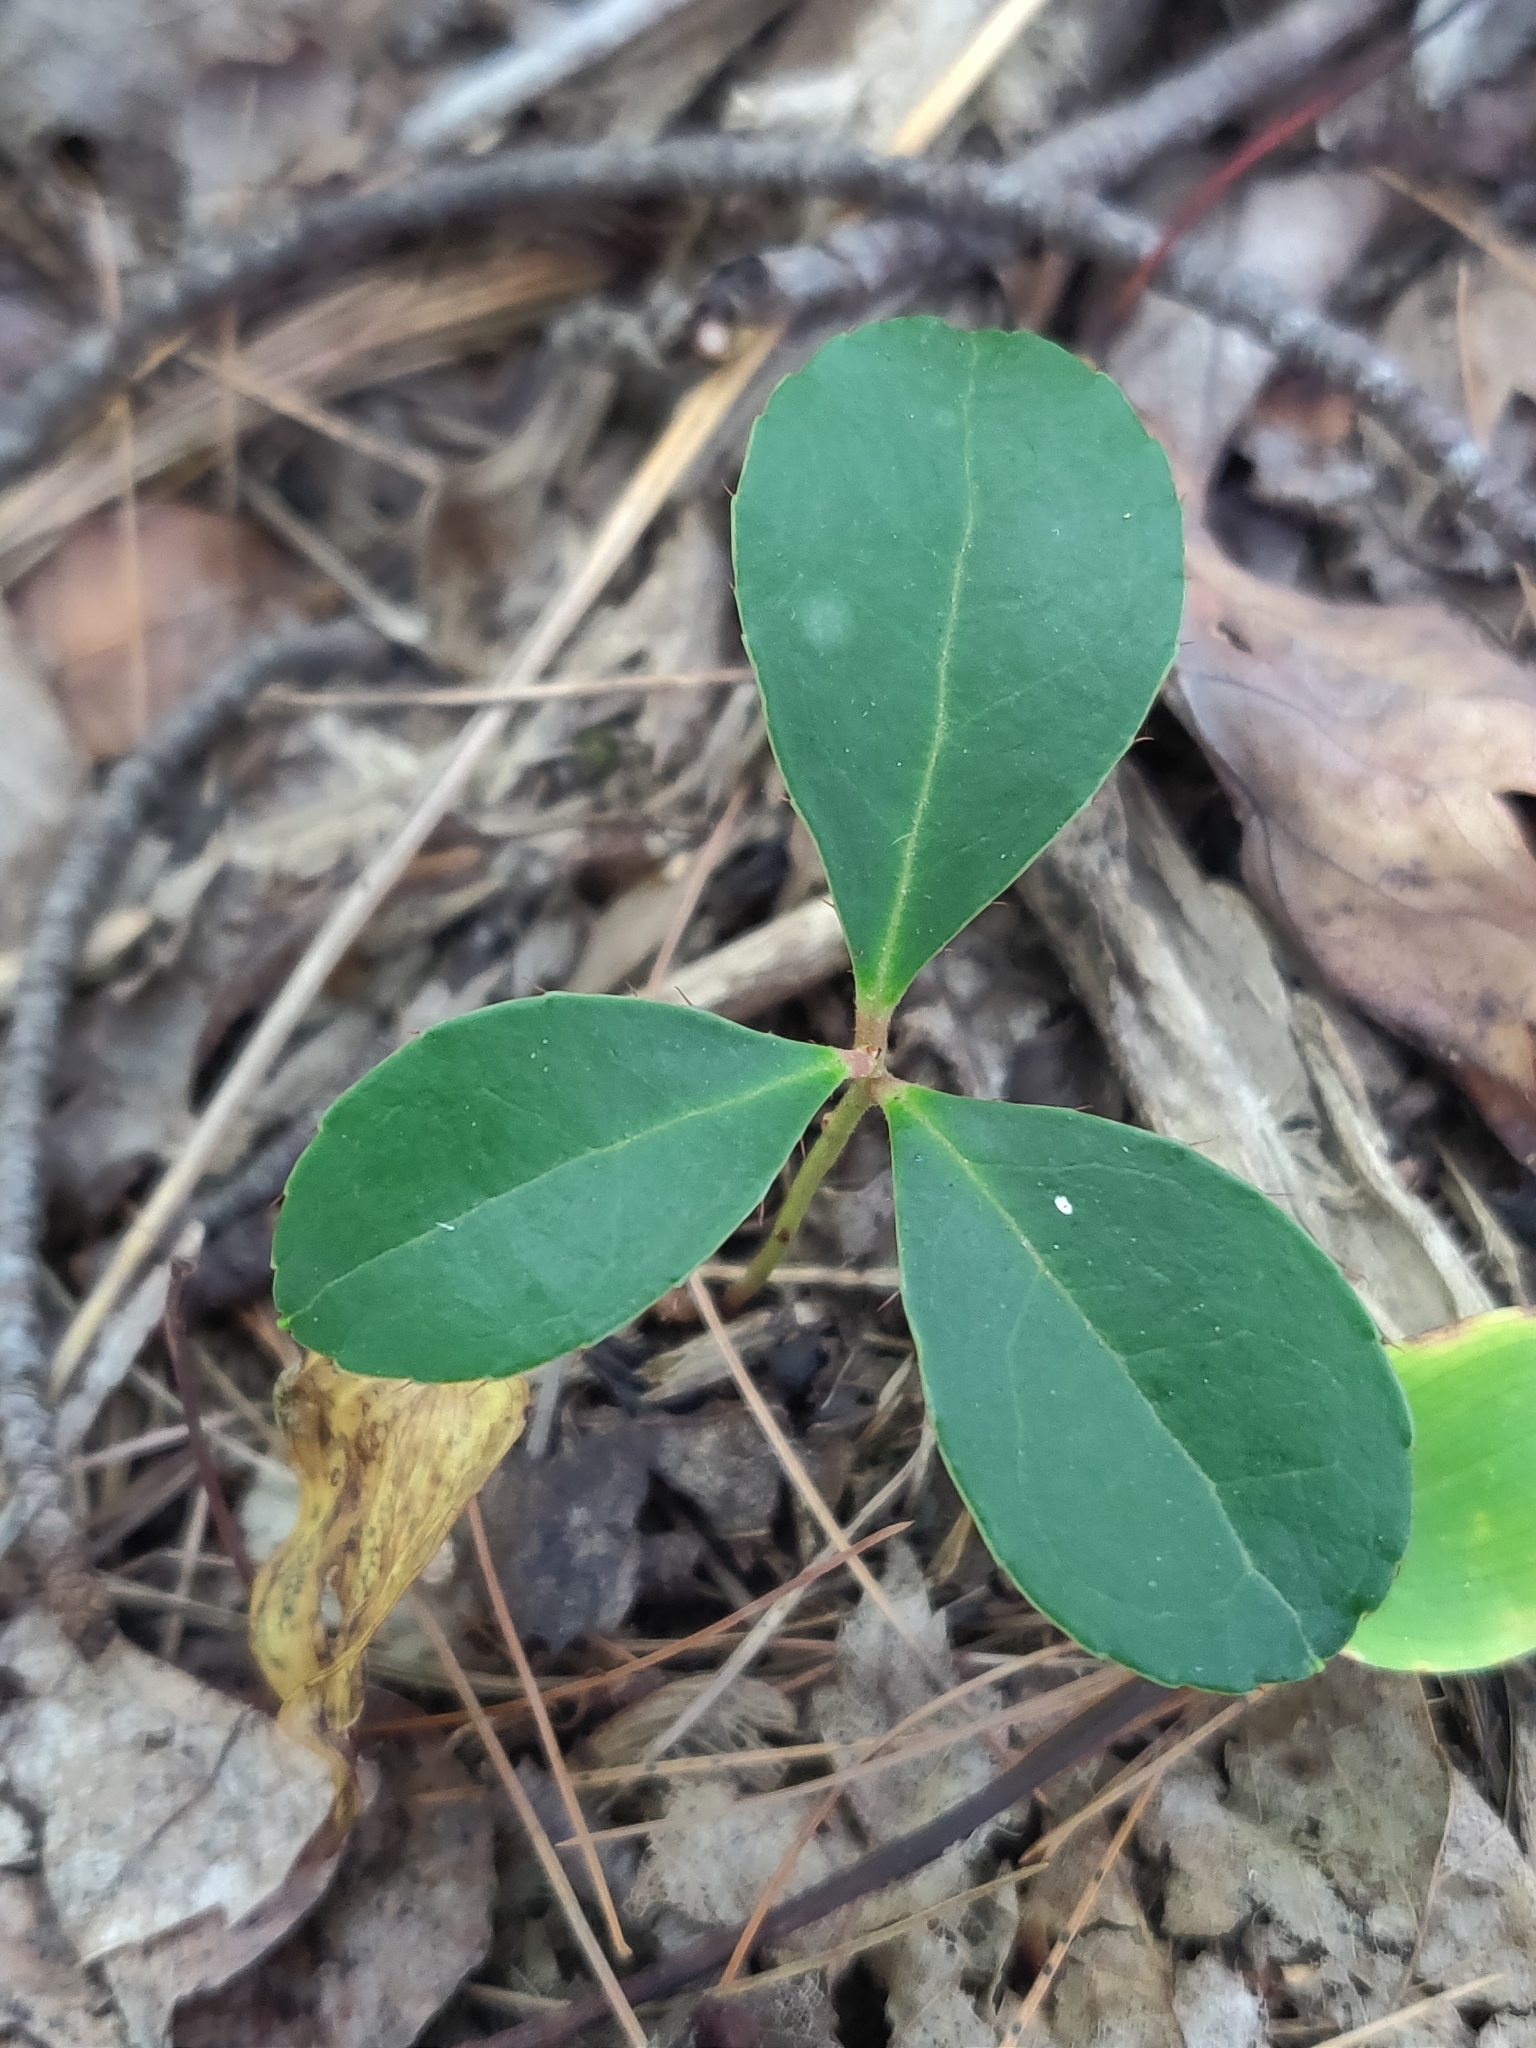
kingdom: Plantae
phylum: Tracheophyta
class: Magnoliopsida
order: Ericales
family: Ericaceae
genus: Gaultheria
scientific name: Gaultheria procumbens
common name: Checkerberry
